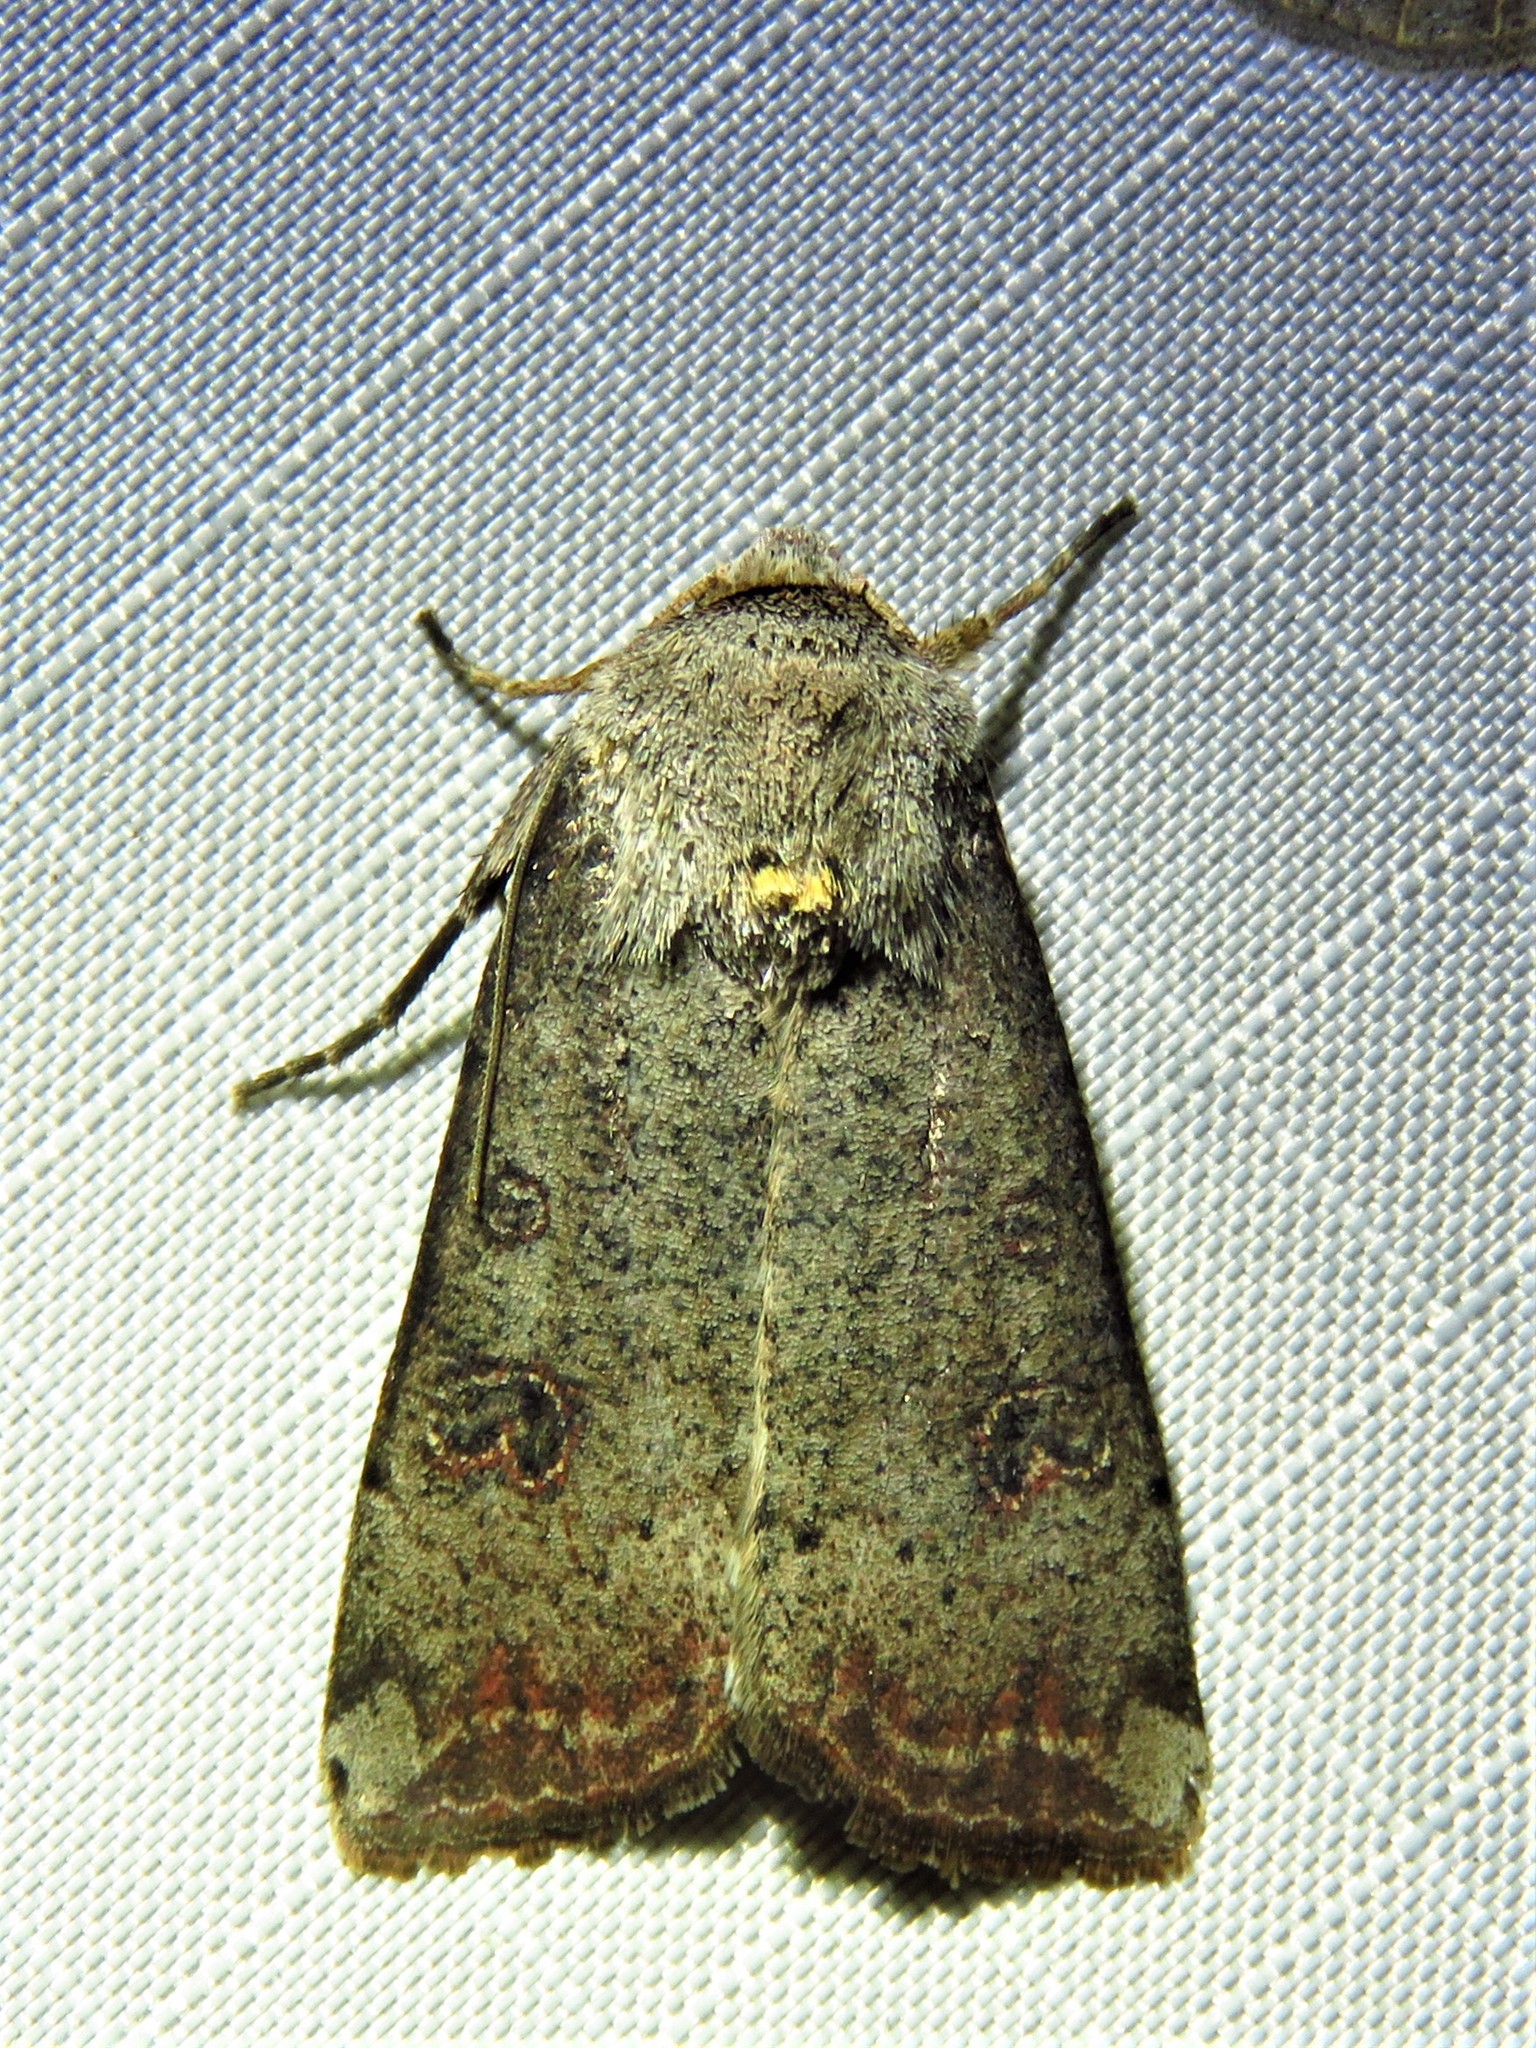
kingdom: Animalia
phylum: Arthropoda
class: Insecta
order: Lepidoptera
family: Noctuidae
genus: Anicla
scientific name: Anicla infecta
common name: Green cutworm
